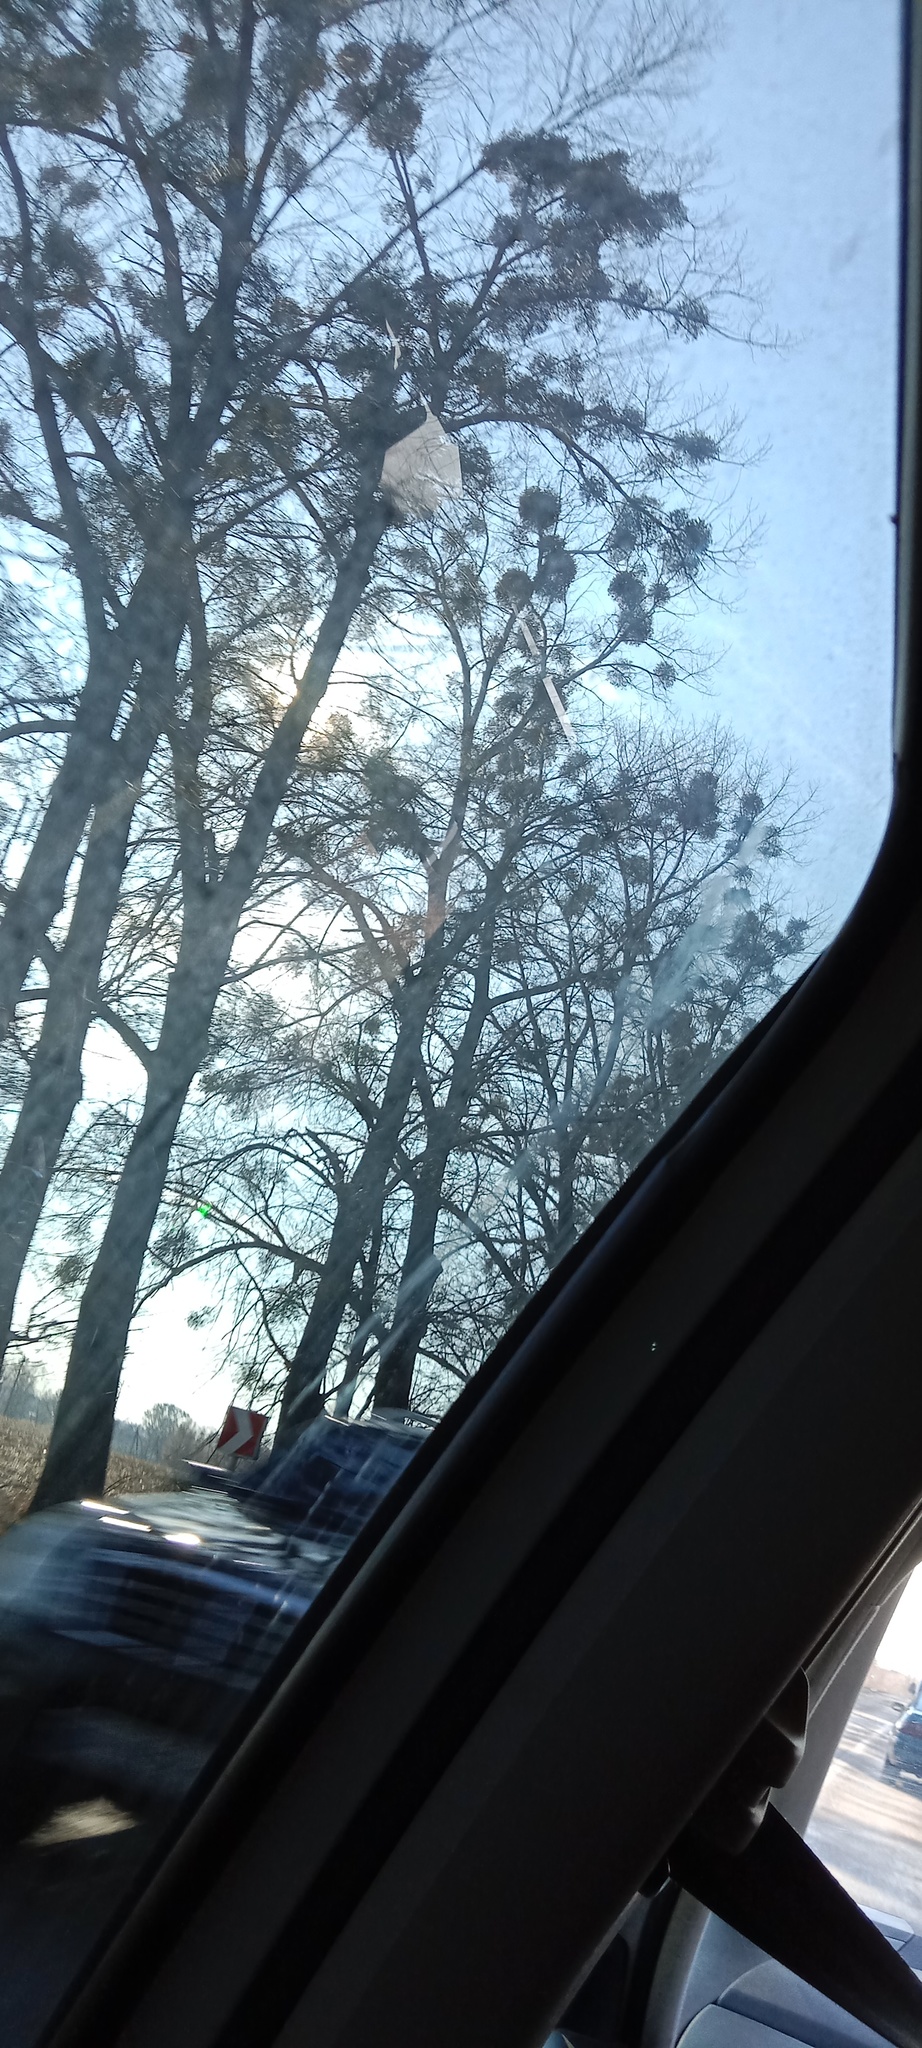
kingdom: Plantae
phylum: Tracheophyta
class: Magnoliopsida
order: Santalales
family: Viscaceae
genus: Viscum
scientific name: Viscum album
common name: Mistletoe
